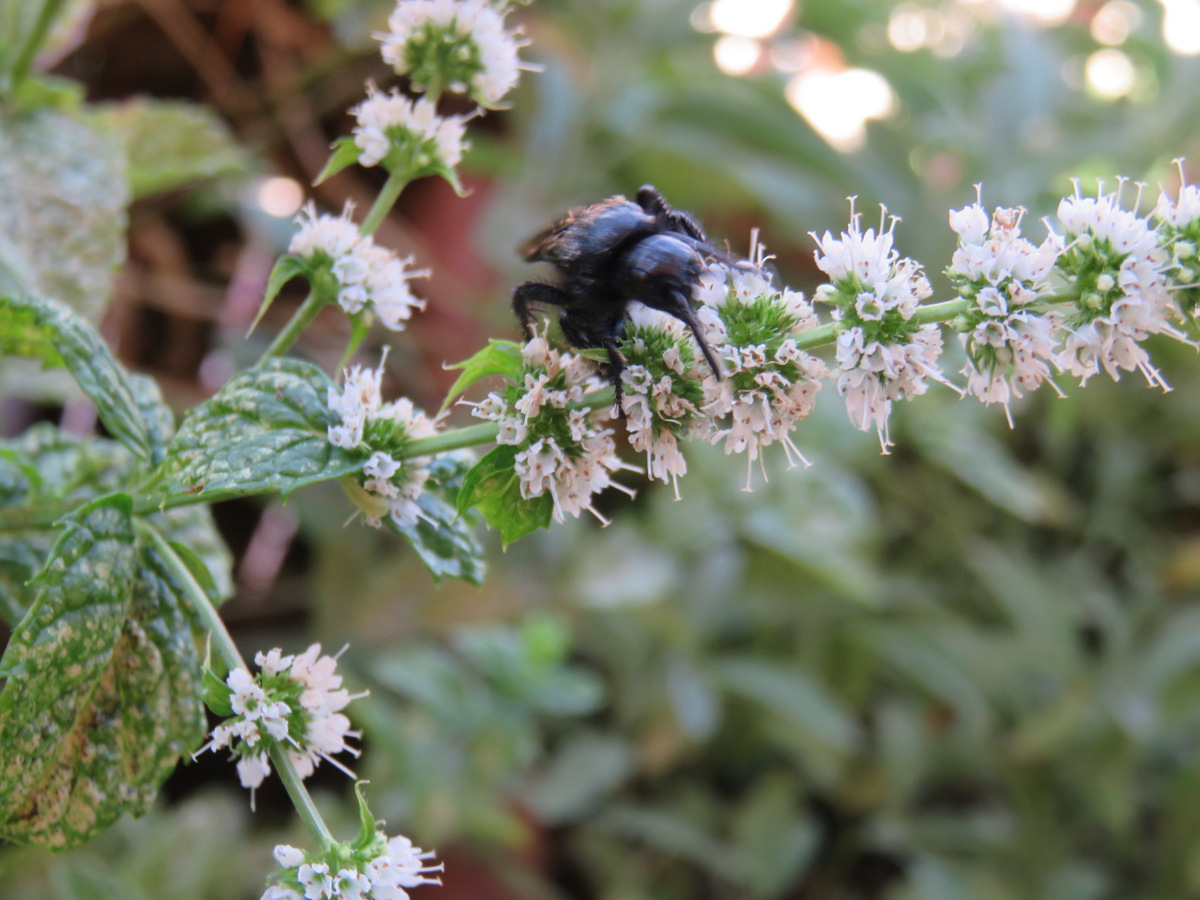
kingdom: Animalia
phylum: Arthropoda
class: Insecta
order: Hymenoptera
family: Scoliidae
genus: Scolia
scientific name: Scolia hirta
